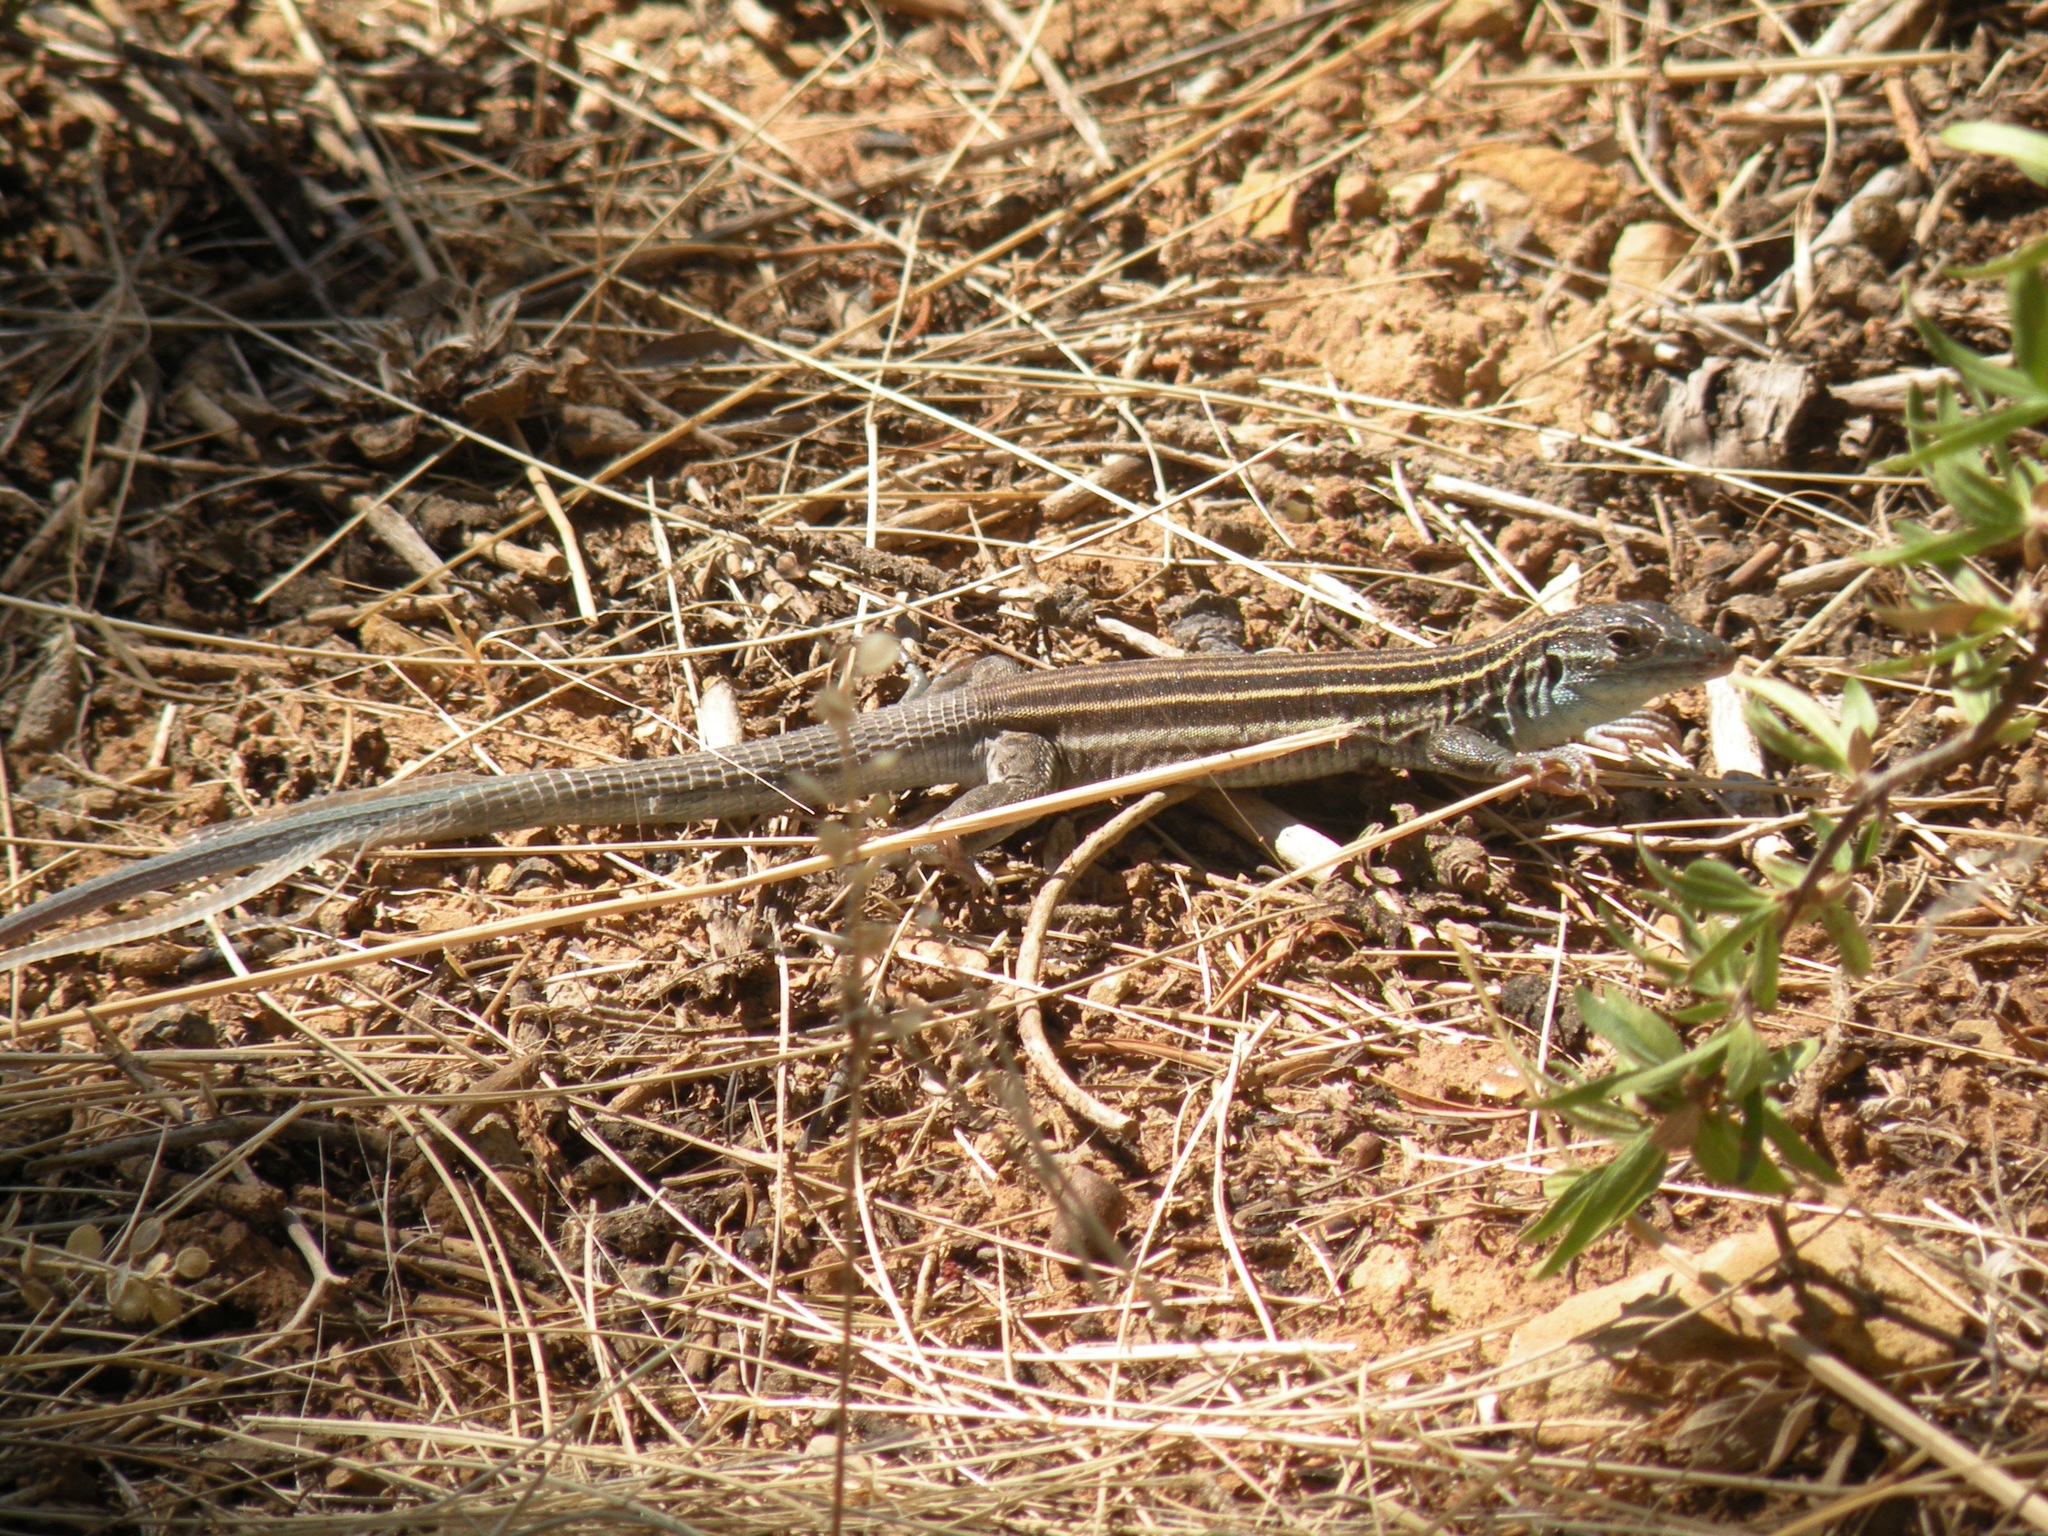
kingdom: Animalia
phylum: Chordata
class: Squamata
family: Teiidae
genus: Aspidoscelis
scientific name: Aspidoscelis velox
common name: Plateau striped whiptail
